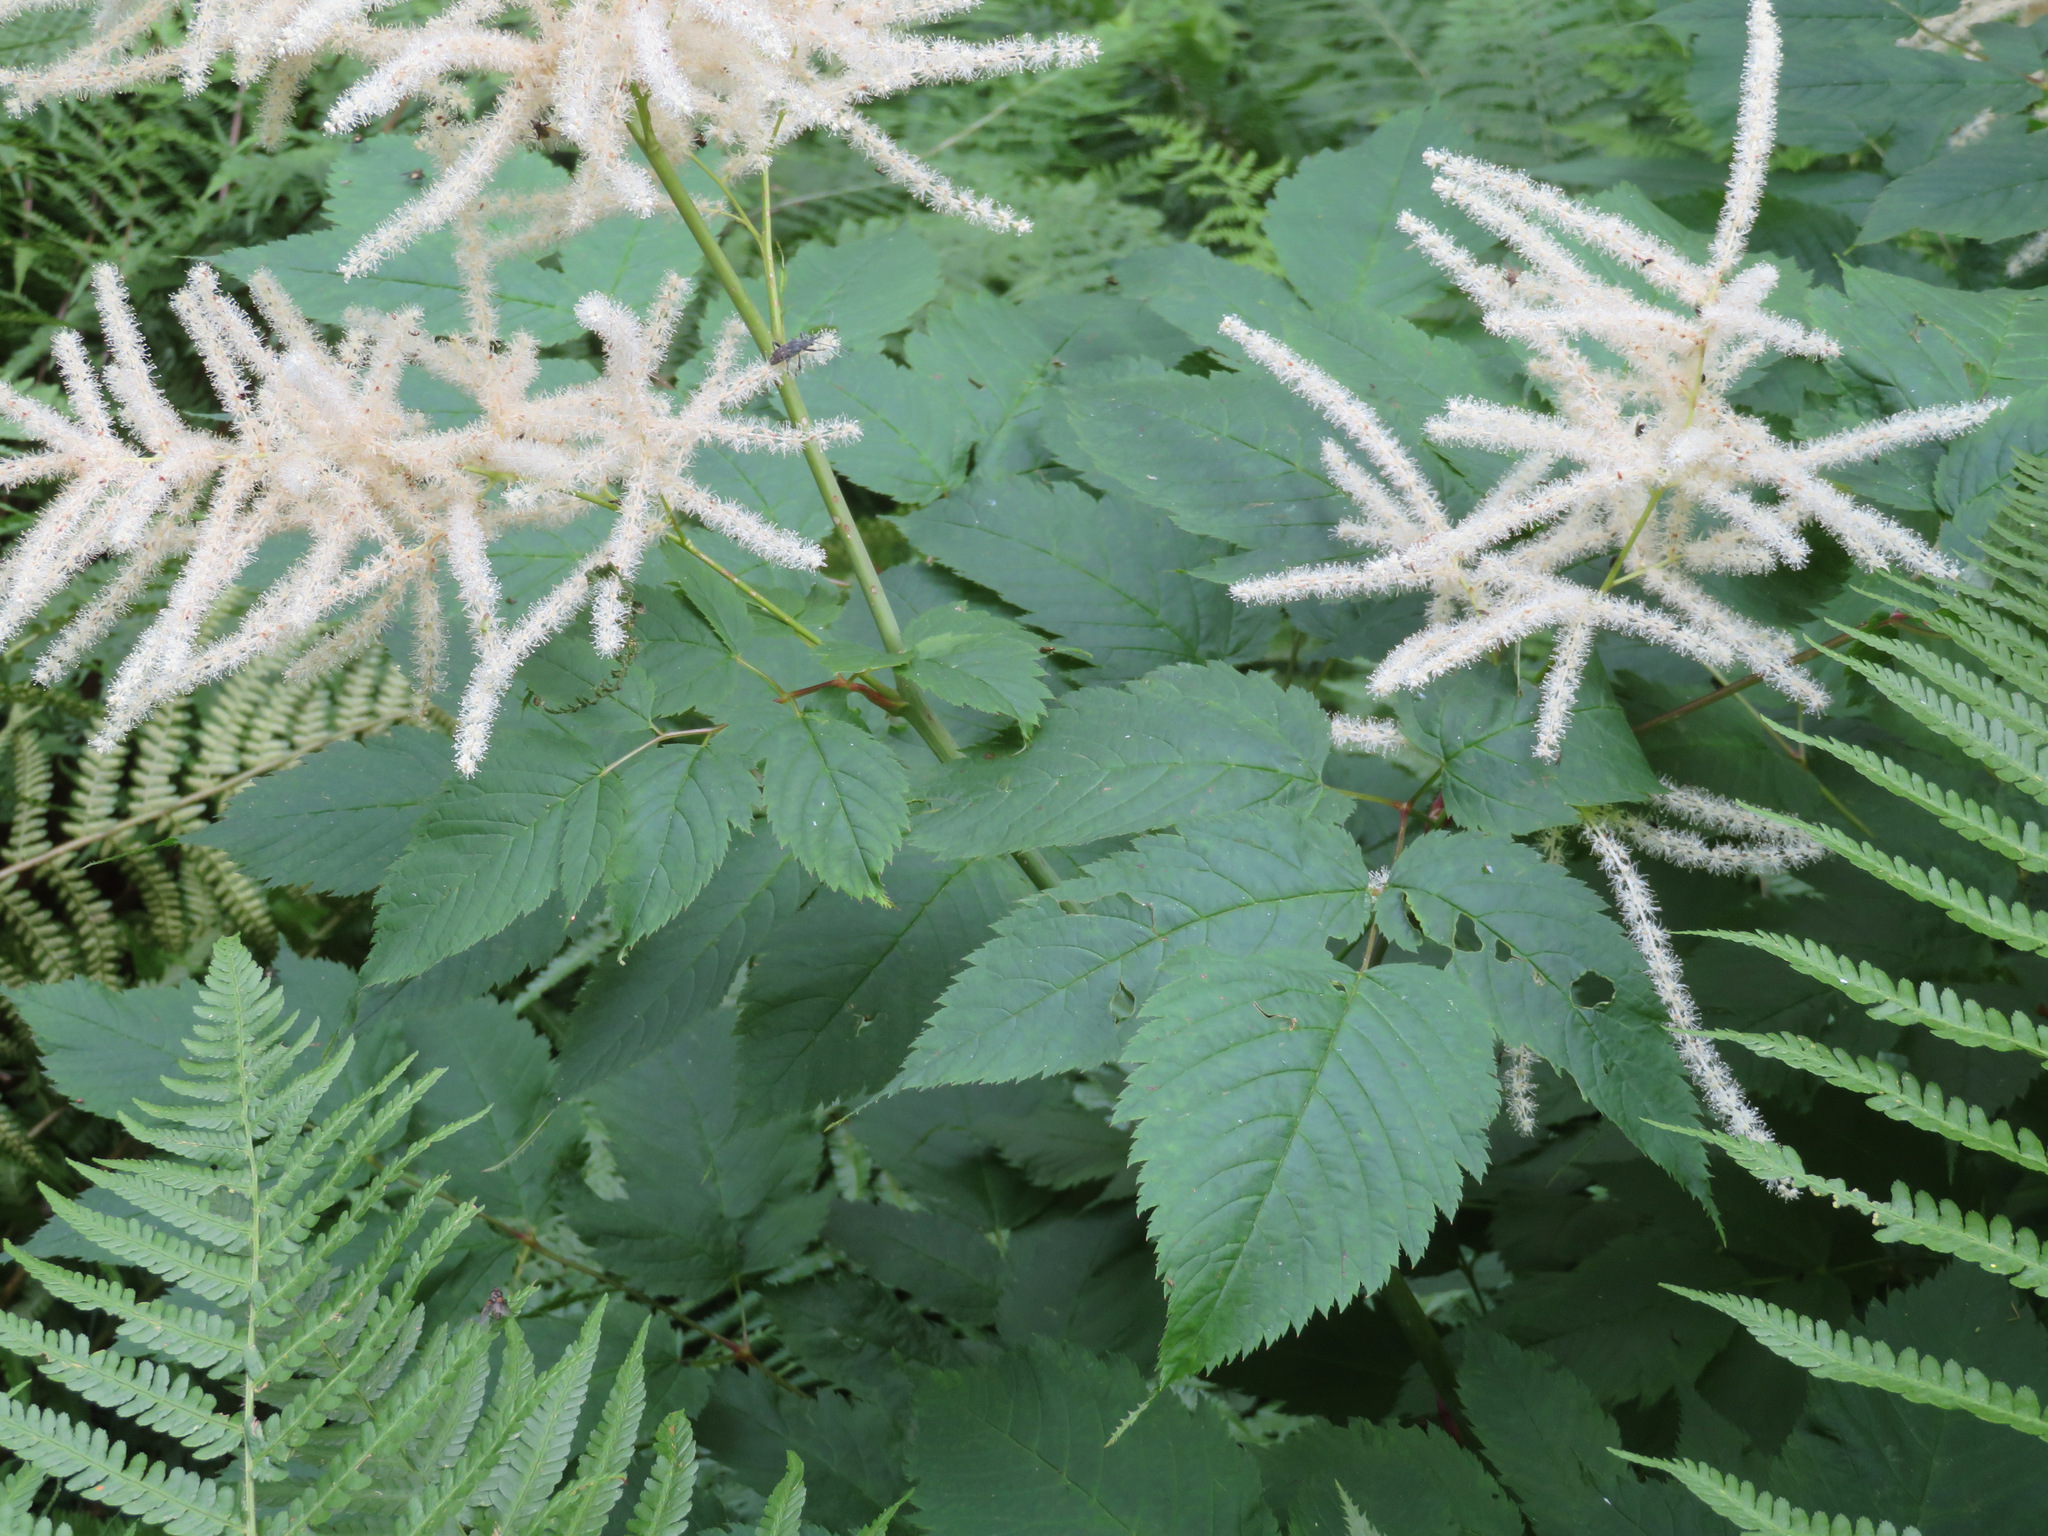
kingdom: Plantae
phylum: Tracheophyta
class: Magnoliopsida
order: Rosales
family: Rosaceae
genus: Aruncus
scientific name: Aruncus dioicus
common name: Buck's-beard
